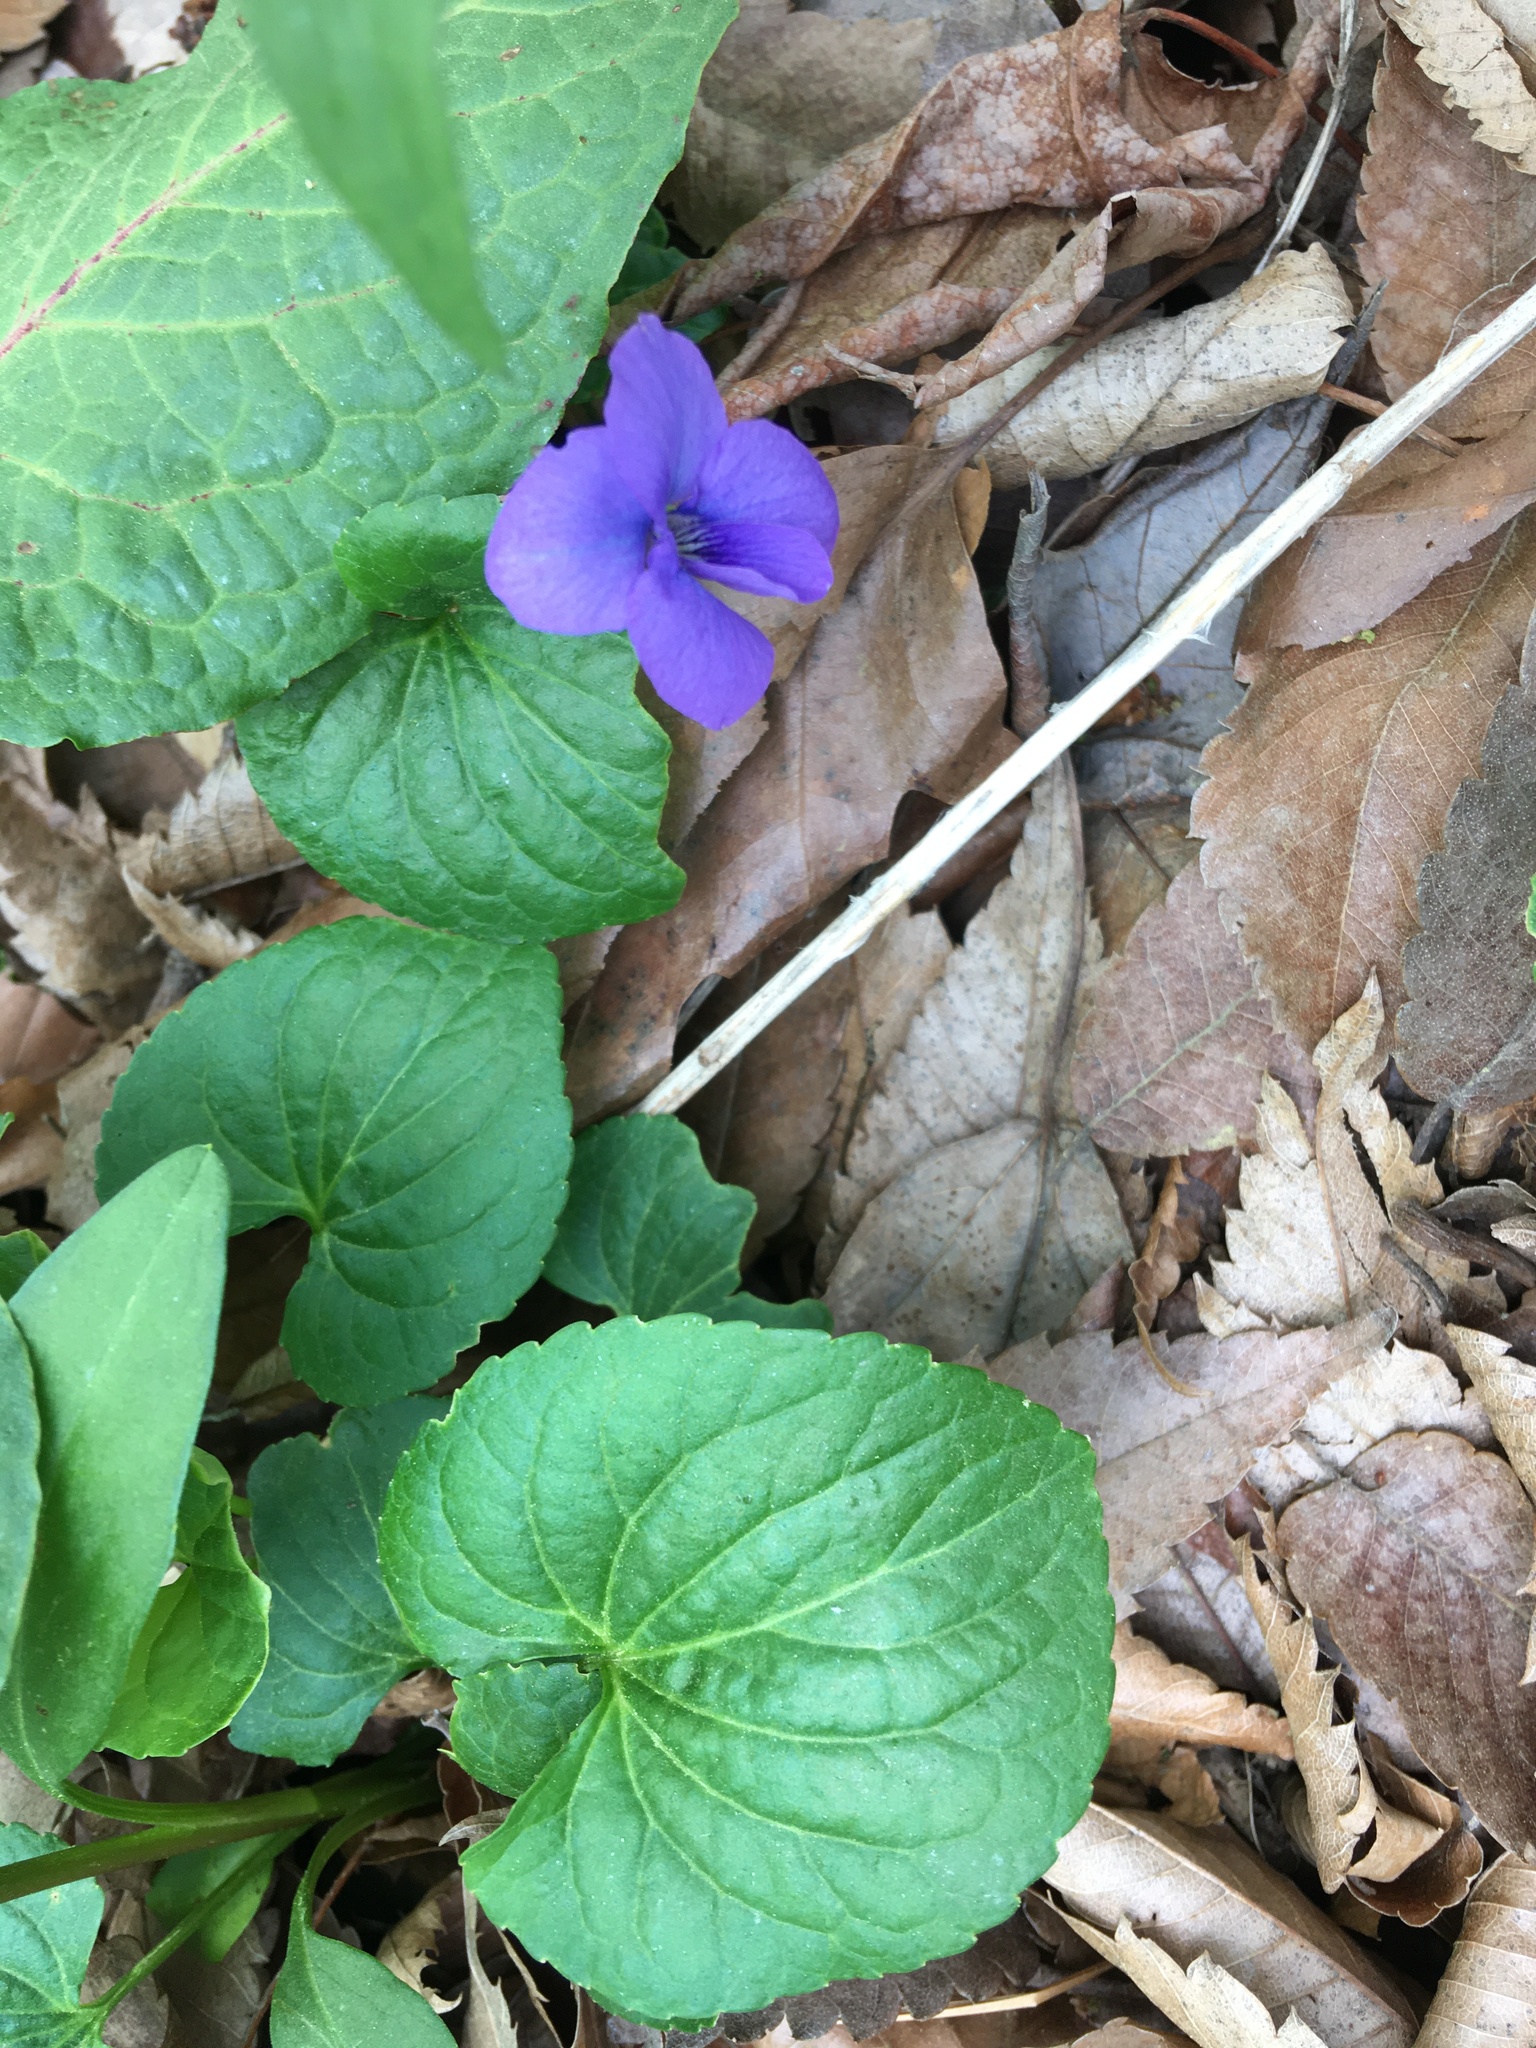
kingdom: Plantae
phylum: Tracheophyta
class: Magnoliopsida
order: Malpighiales
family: Violaceae
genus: Viola
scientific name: Viola sororia
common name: Dooryard violet
